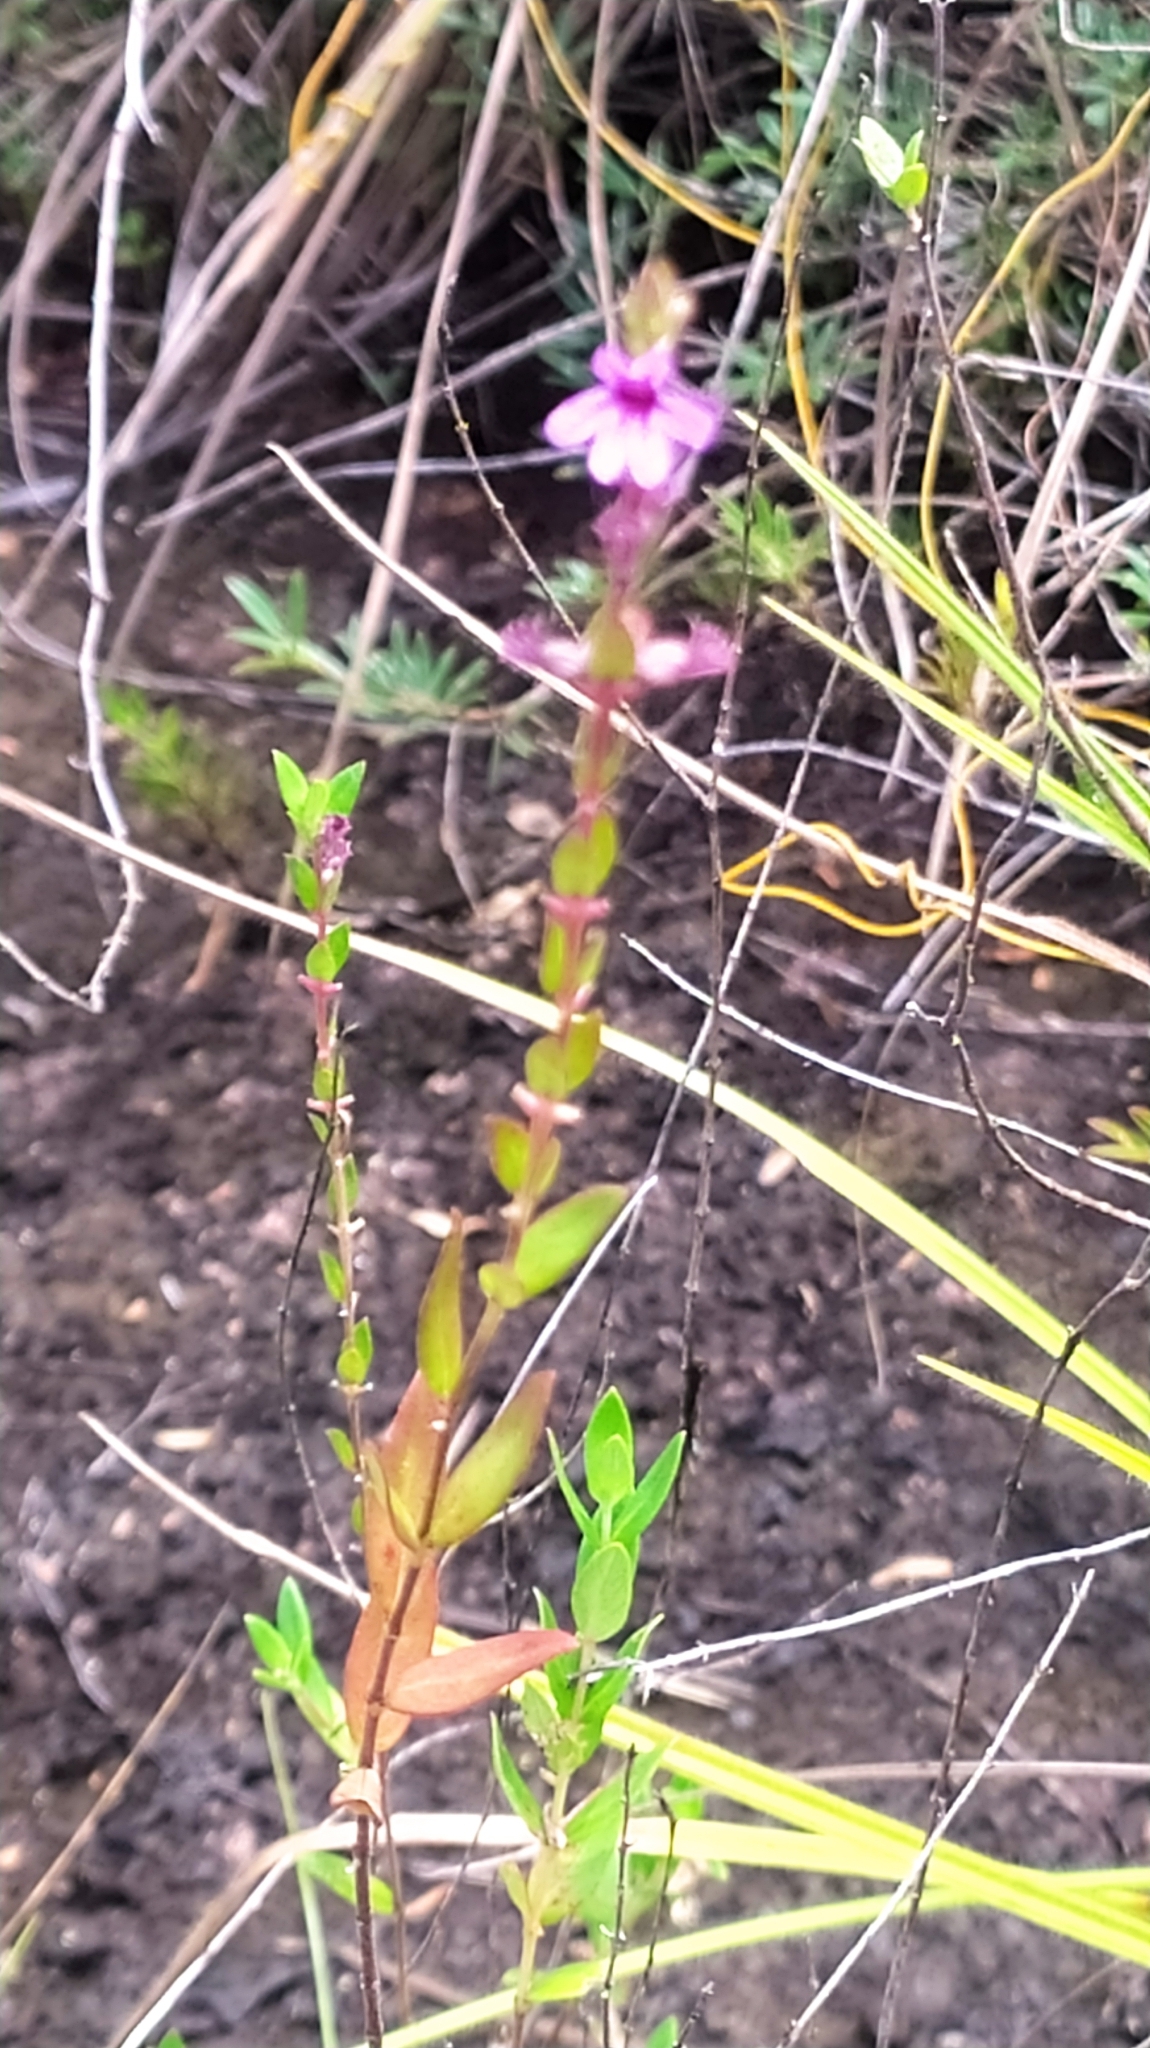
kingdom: Plantae
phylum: Tracheophyta
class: Magnoliopsida
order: Myrtales
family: Lythraceae
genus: Cuphea
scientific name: Cuphea blackii
